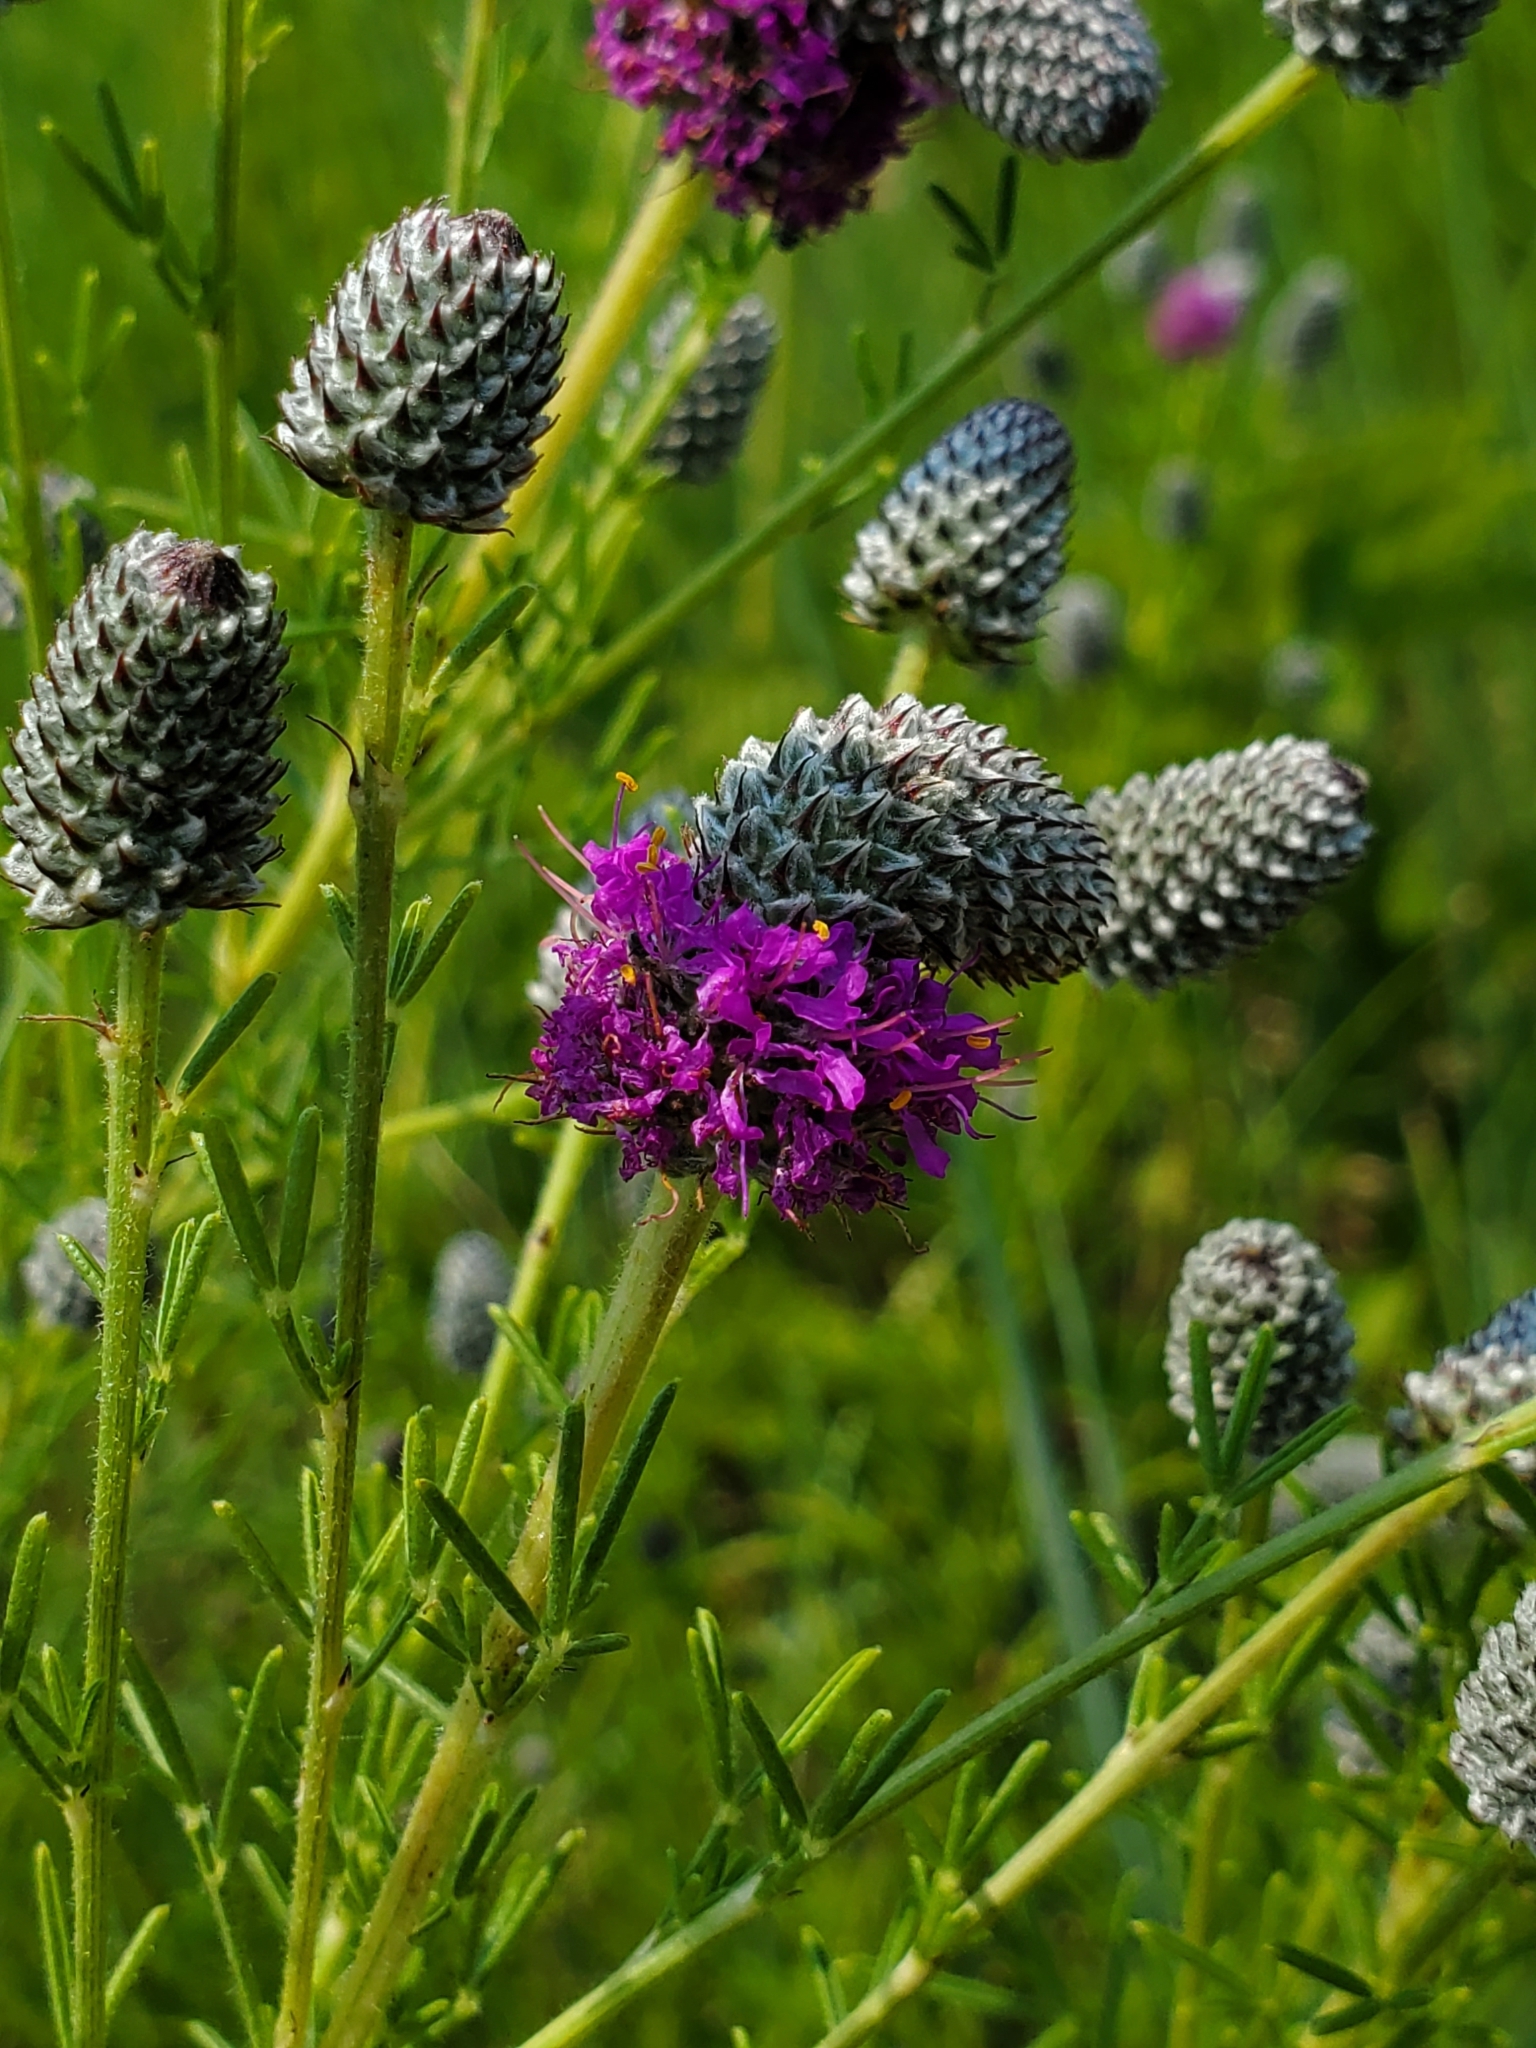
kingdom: Plantae
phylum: Tracheophyta
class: Magnoliopsida
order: Fabales
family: Fabaceae
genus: Dalea
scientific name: Dalea purpurea
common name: Purple prairie-clover
